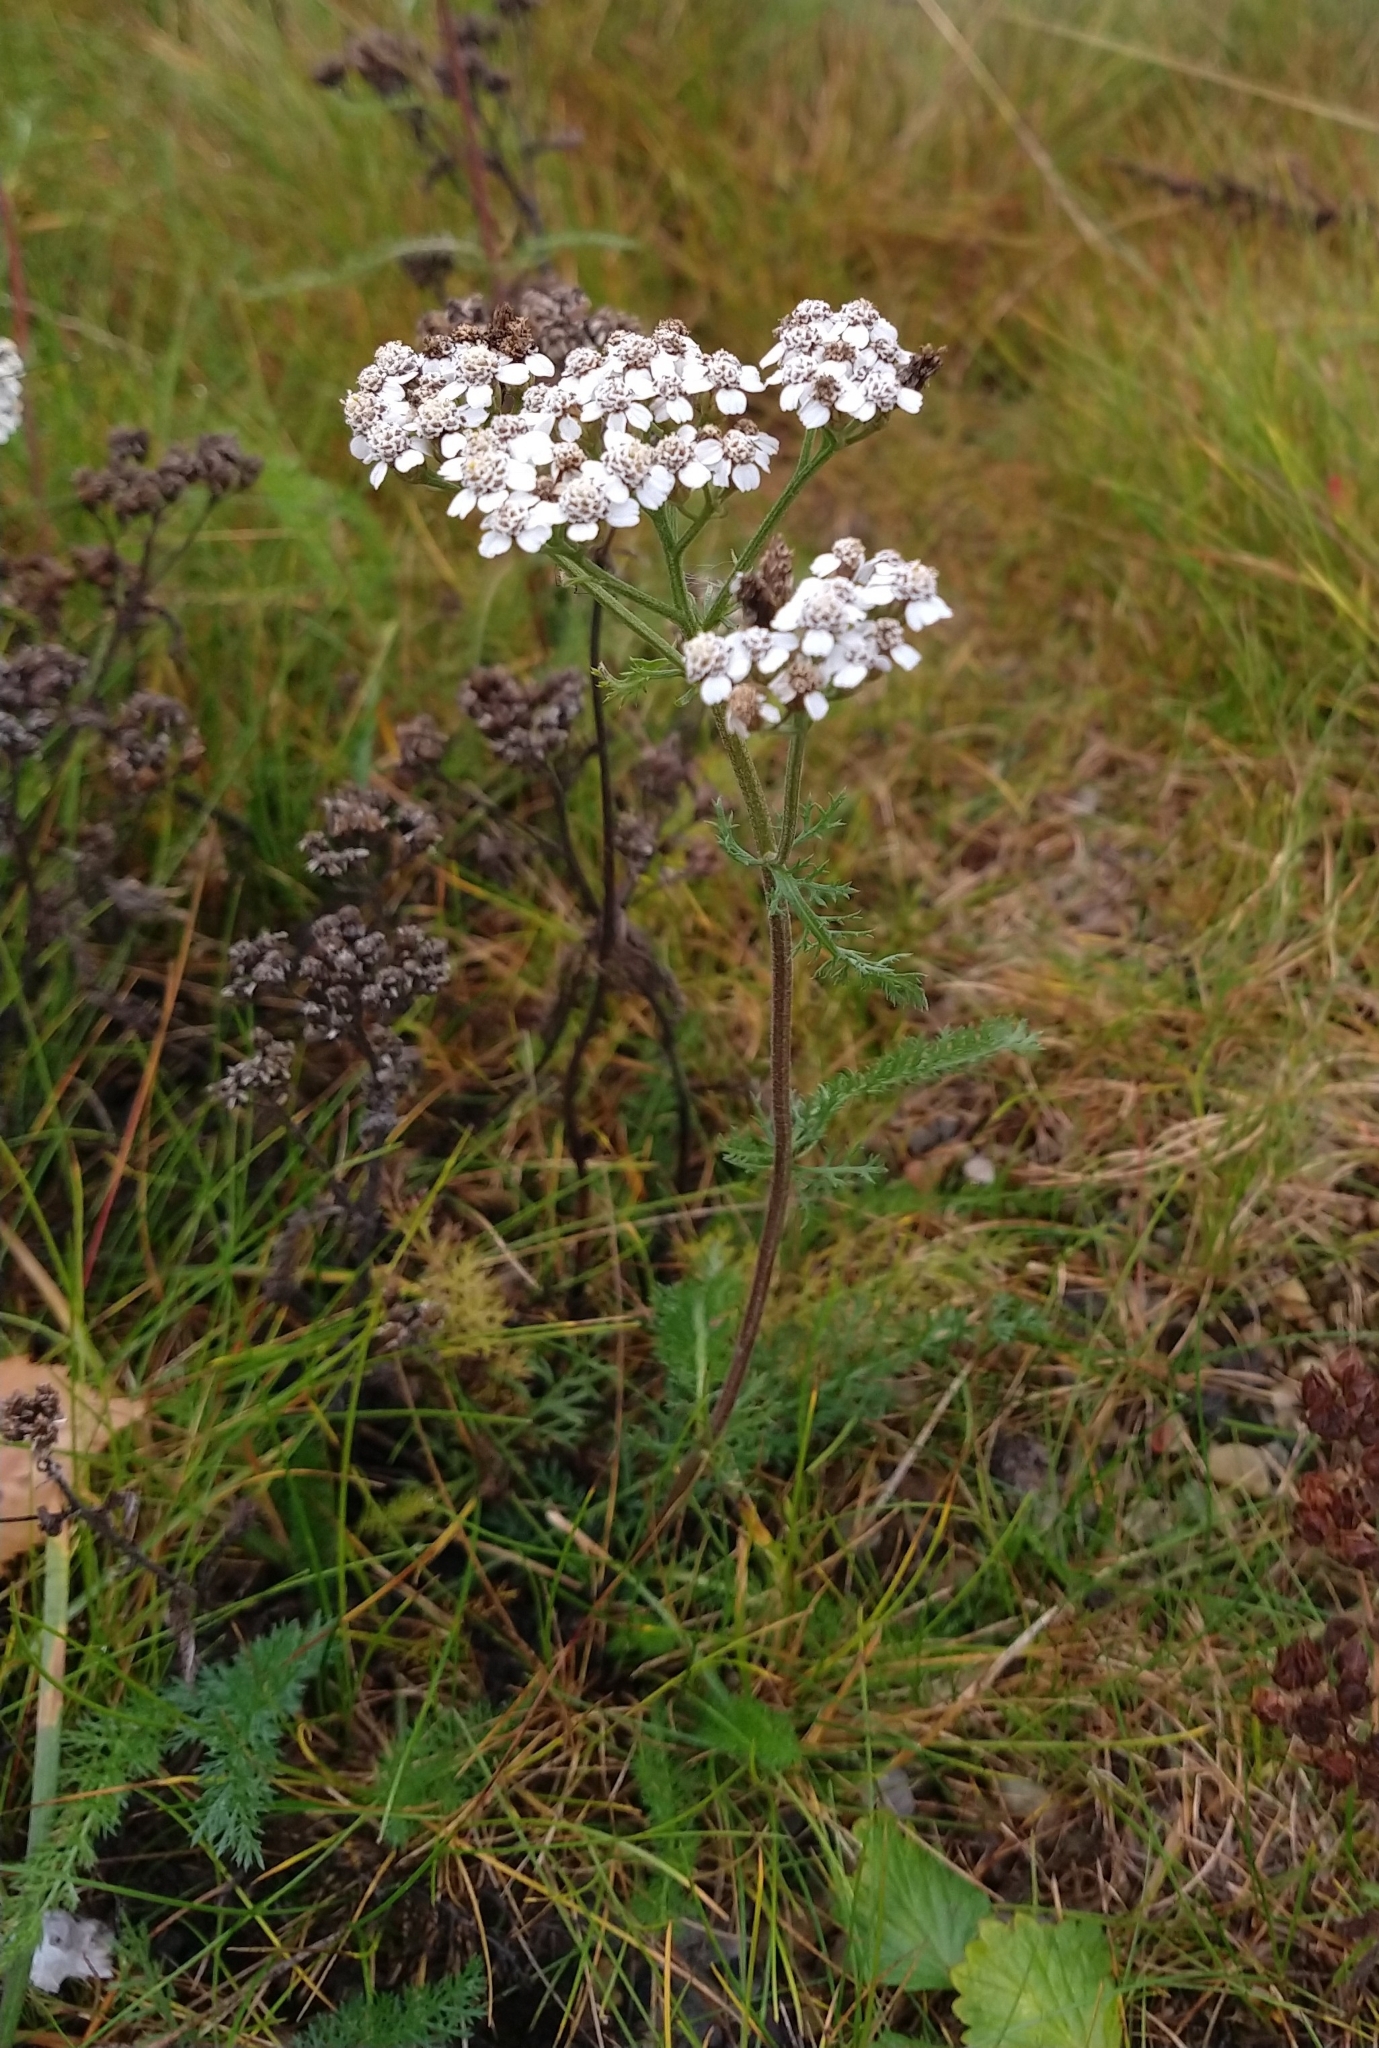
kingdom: Plantae
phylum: Tracheophyta
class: Magnoliopsida
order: Asterales
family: Asteraceae
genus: Achillea
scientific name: Achillea millefolium
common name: Yarrow
